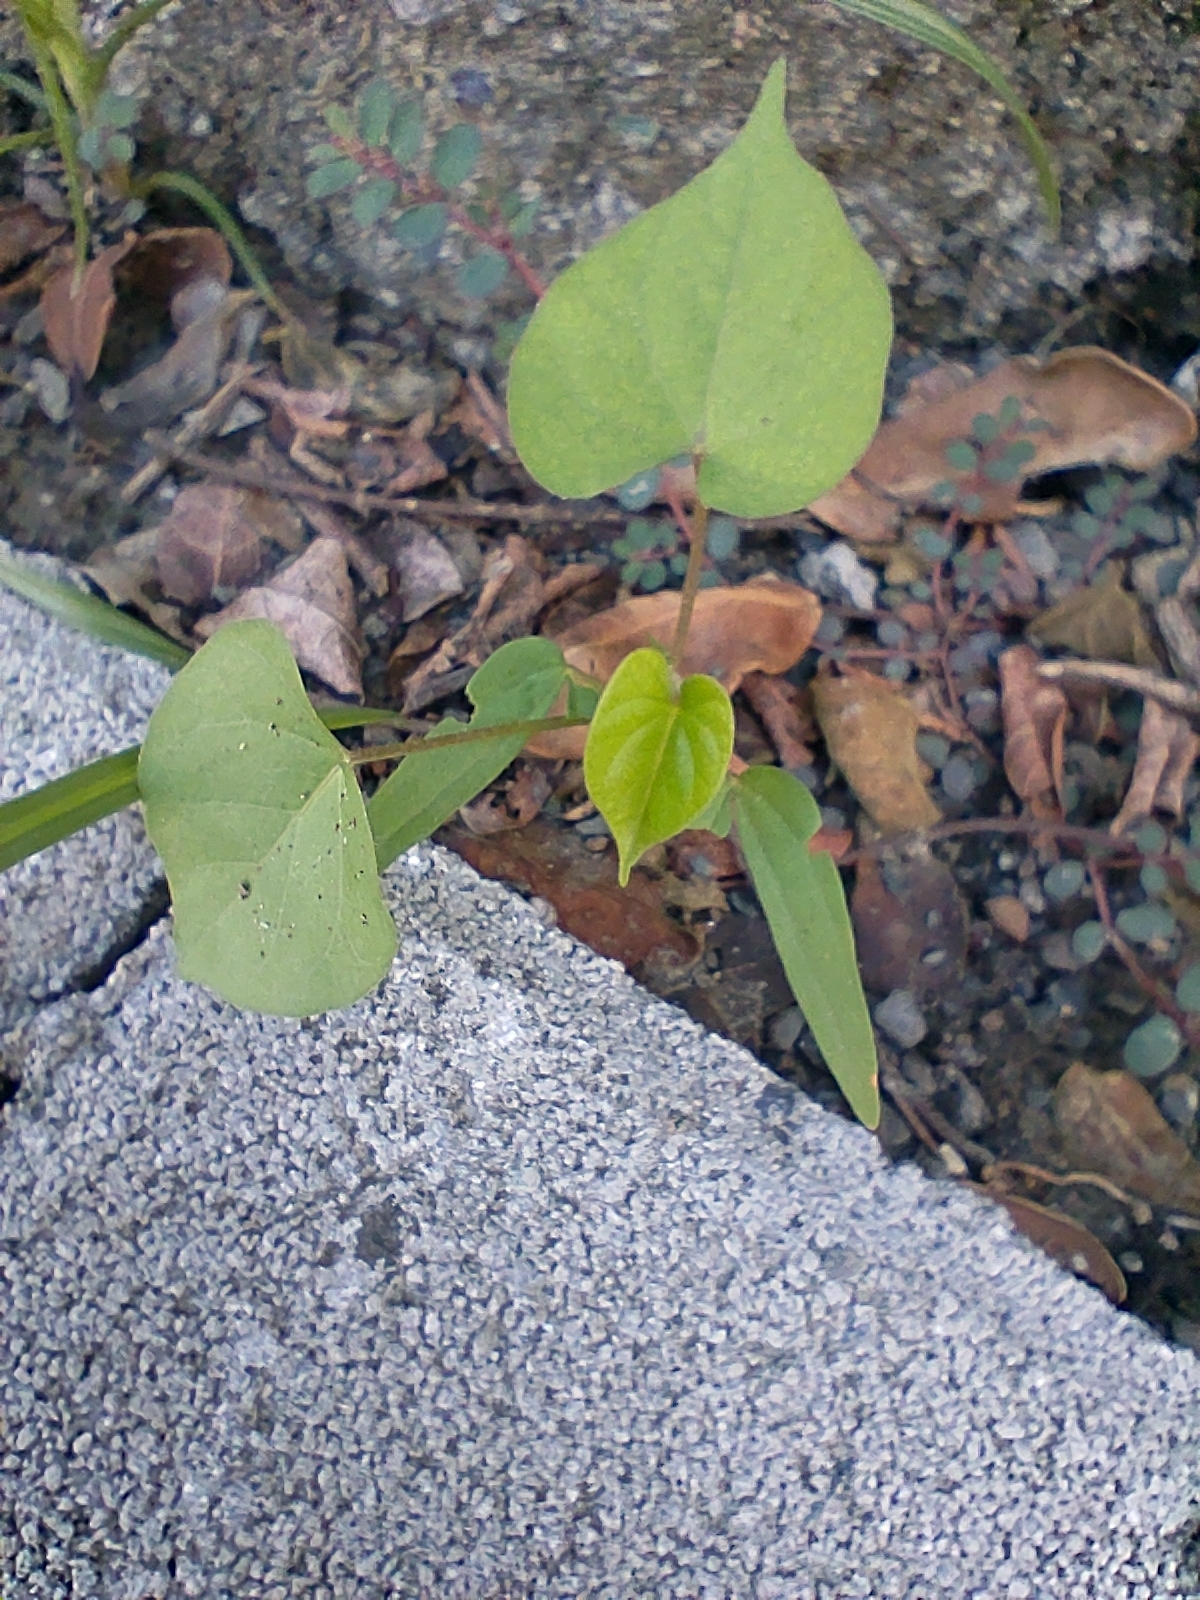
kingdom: Plantae
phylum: Tracheophyta
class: Magnoliopsida
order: Solanales
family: Convolvulaceae
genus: Ipomoea
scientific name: Ipomoea obscura
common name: Obscure morning-glory
